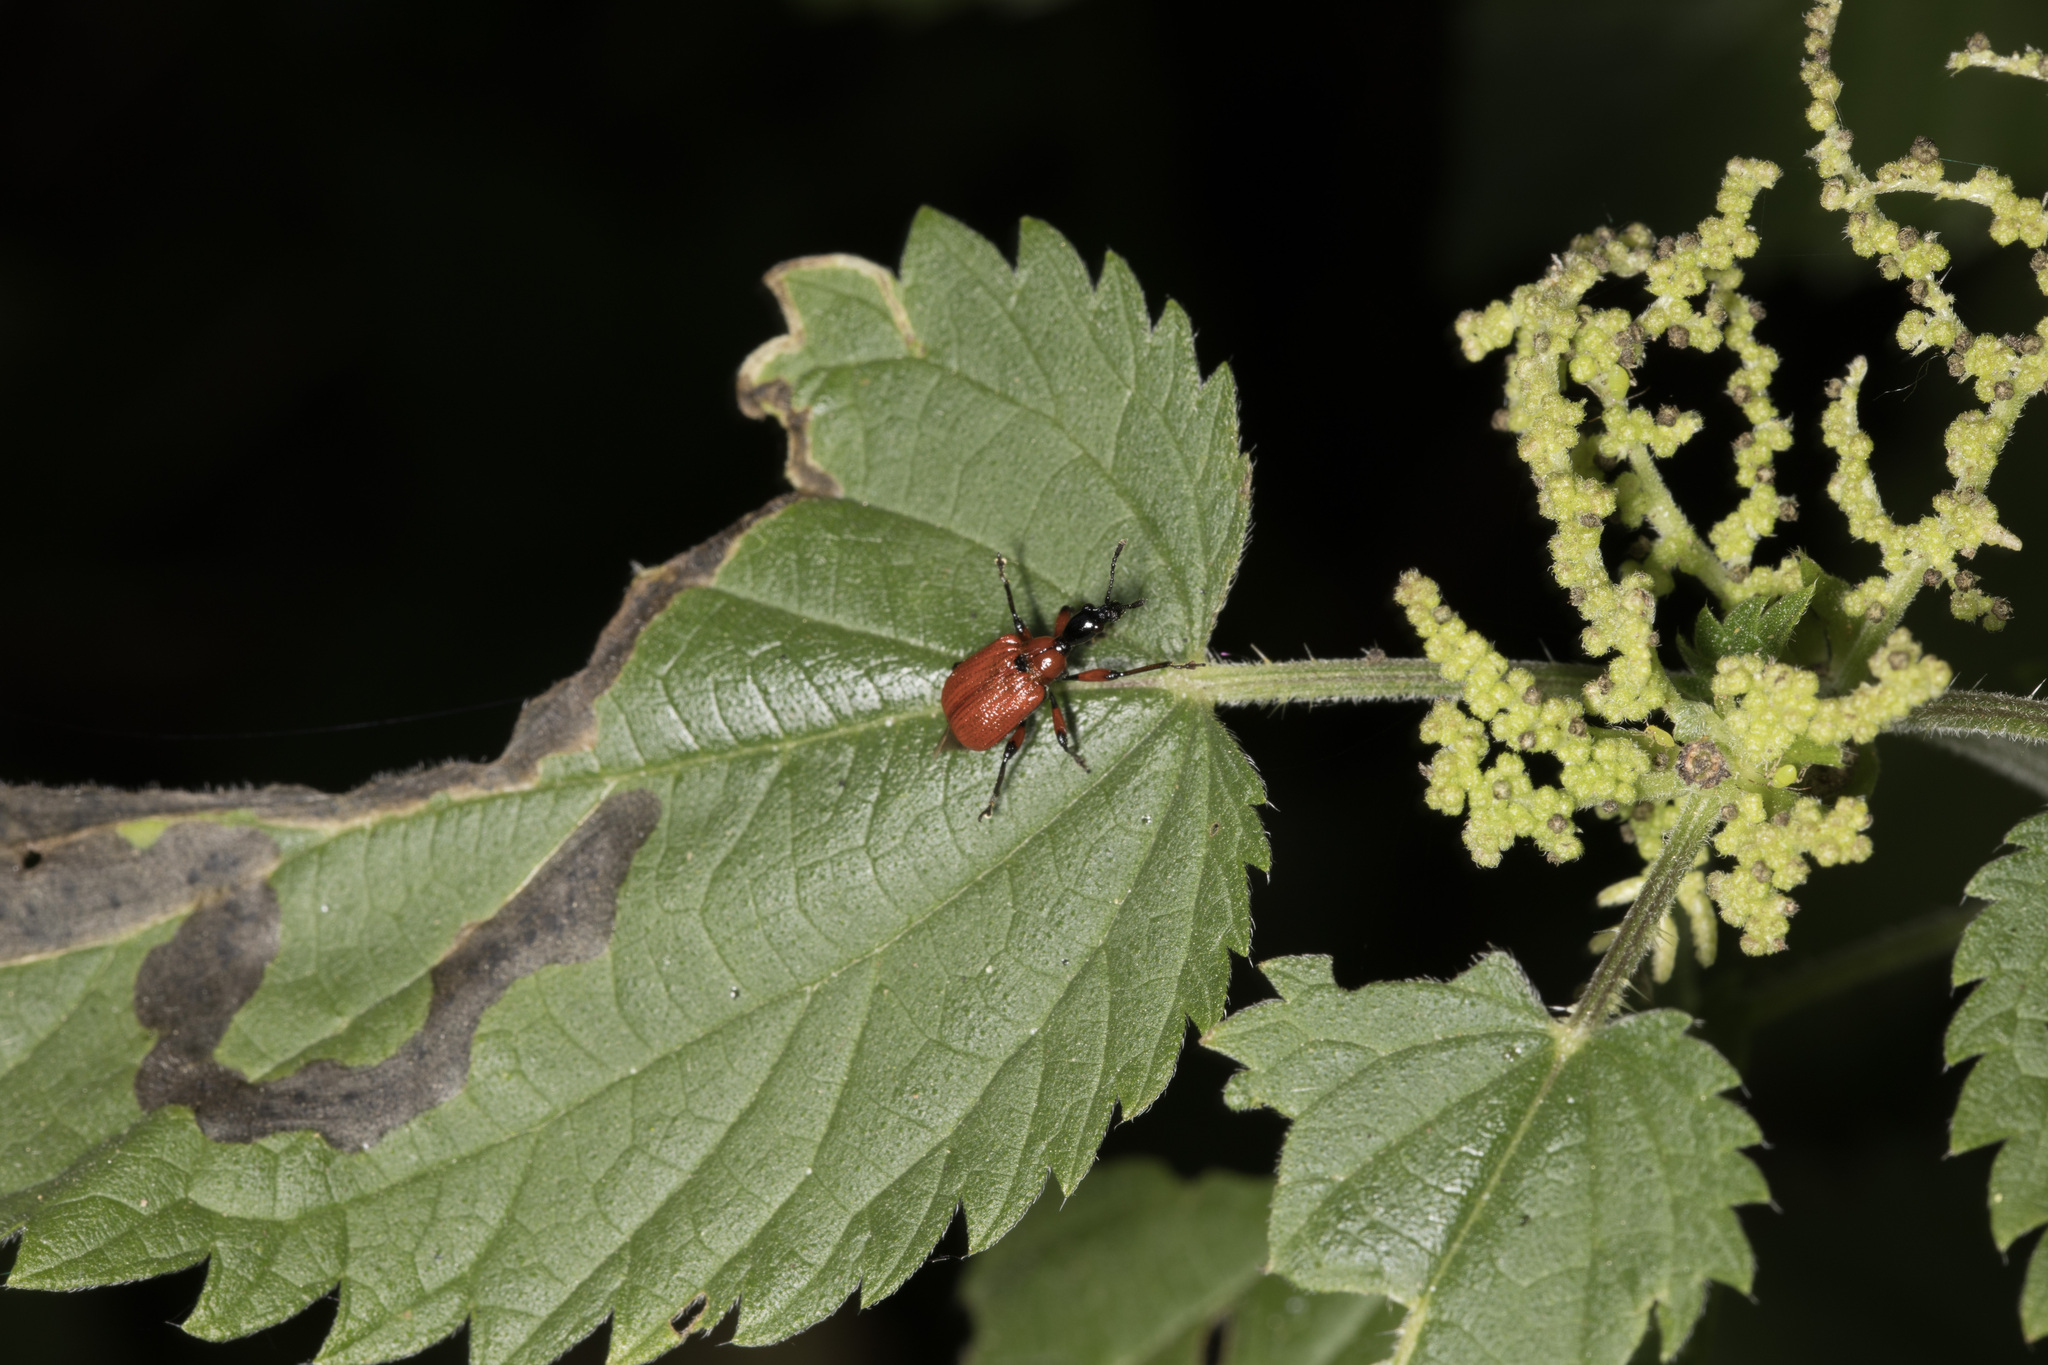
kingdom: Animalia
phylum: Arthropoda
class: Insecta
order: Coleoptera
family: Attelabidae
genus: Apoderus
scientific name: Apoderus coryli
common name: Hazel leaf roller
